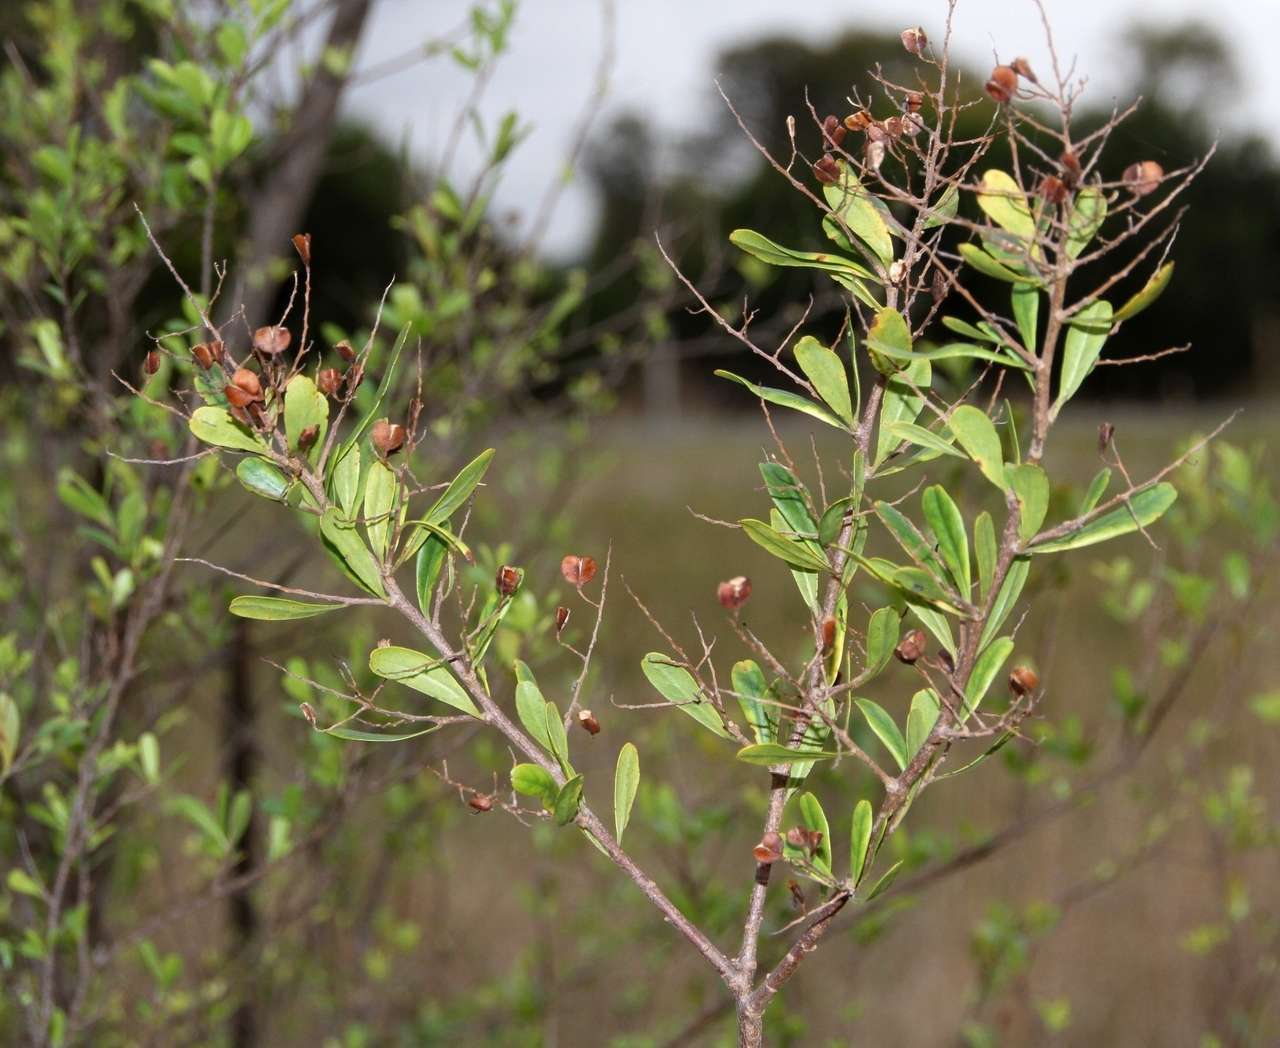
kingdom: Plantae
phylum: Tracheophyta
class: Magnoliopsida
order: Apiales
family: Pittosporaceae
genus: Bursaria
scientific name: Bursaria spinosa
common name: Australian blackthorn
